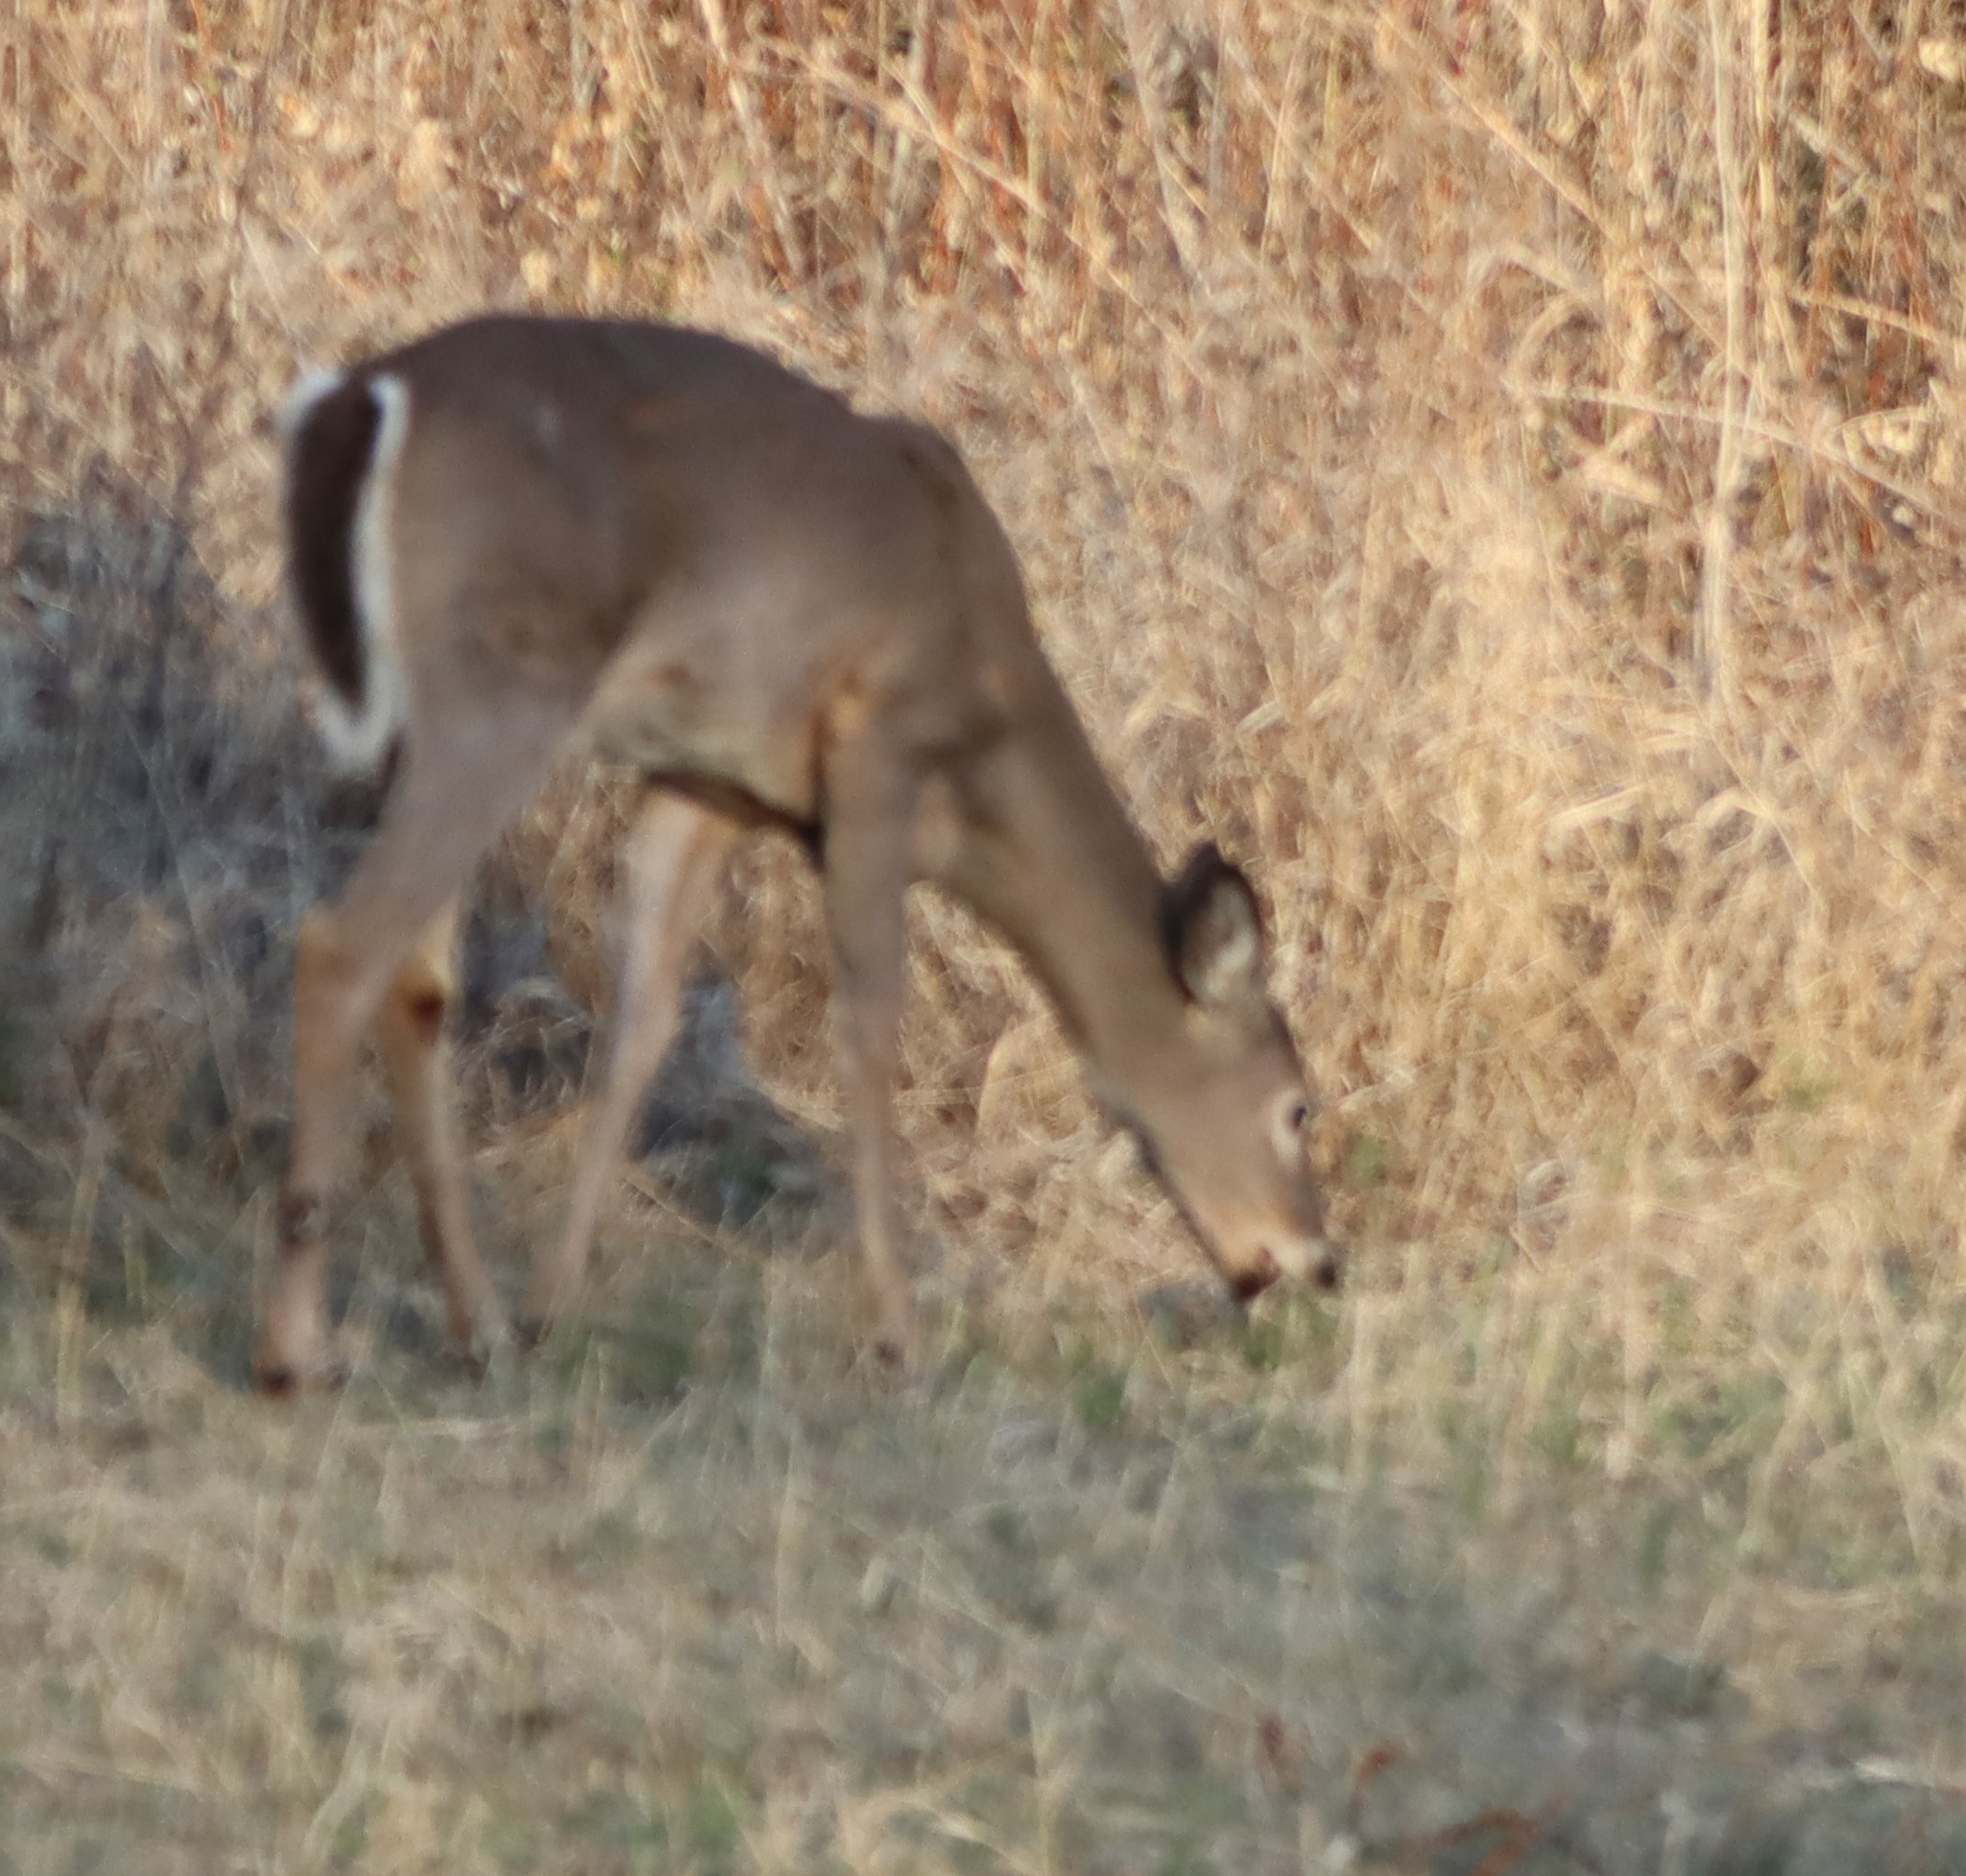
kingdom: Animalia
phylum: Chordata
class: Mammalia
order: Artiodactyla
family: Cervidae
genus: Odocoileus
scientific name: Odocoileus virginianus
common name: White-tailed deer
